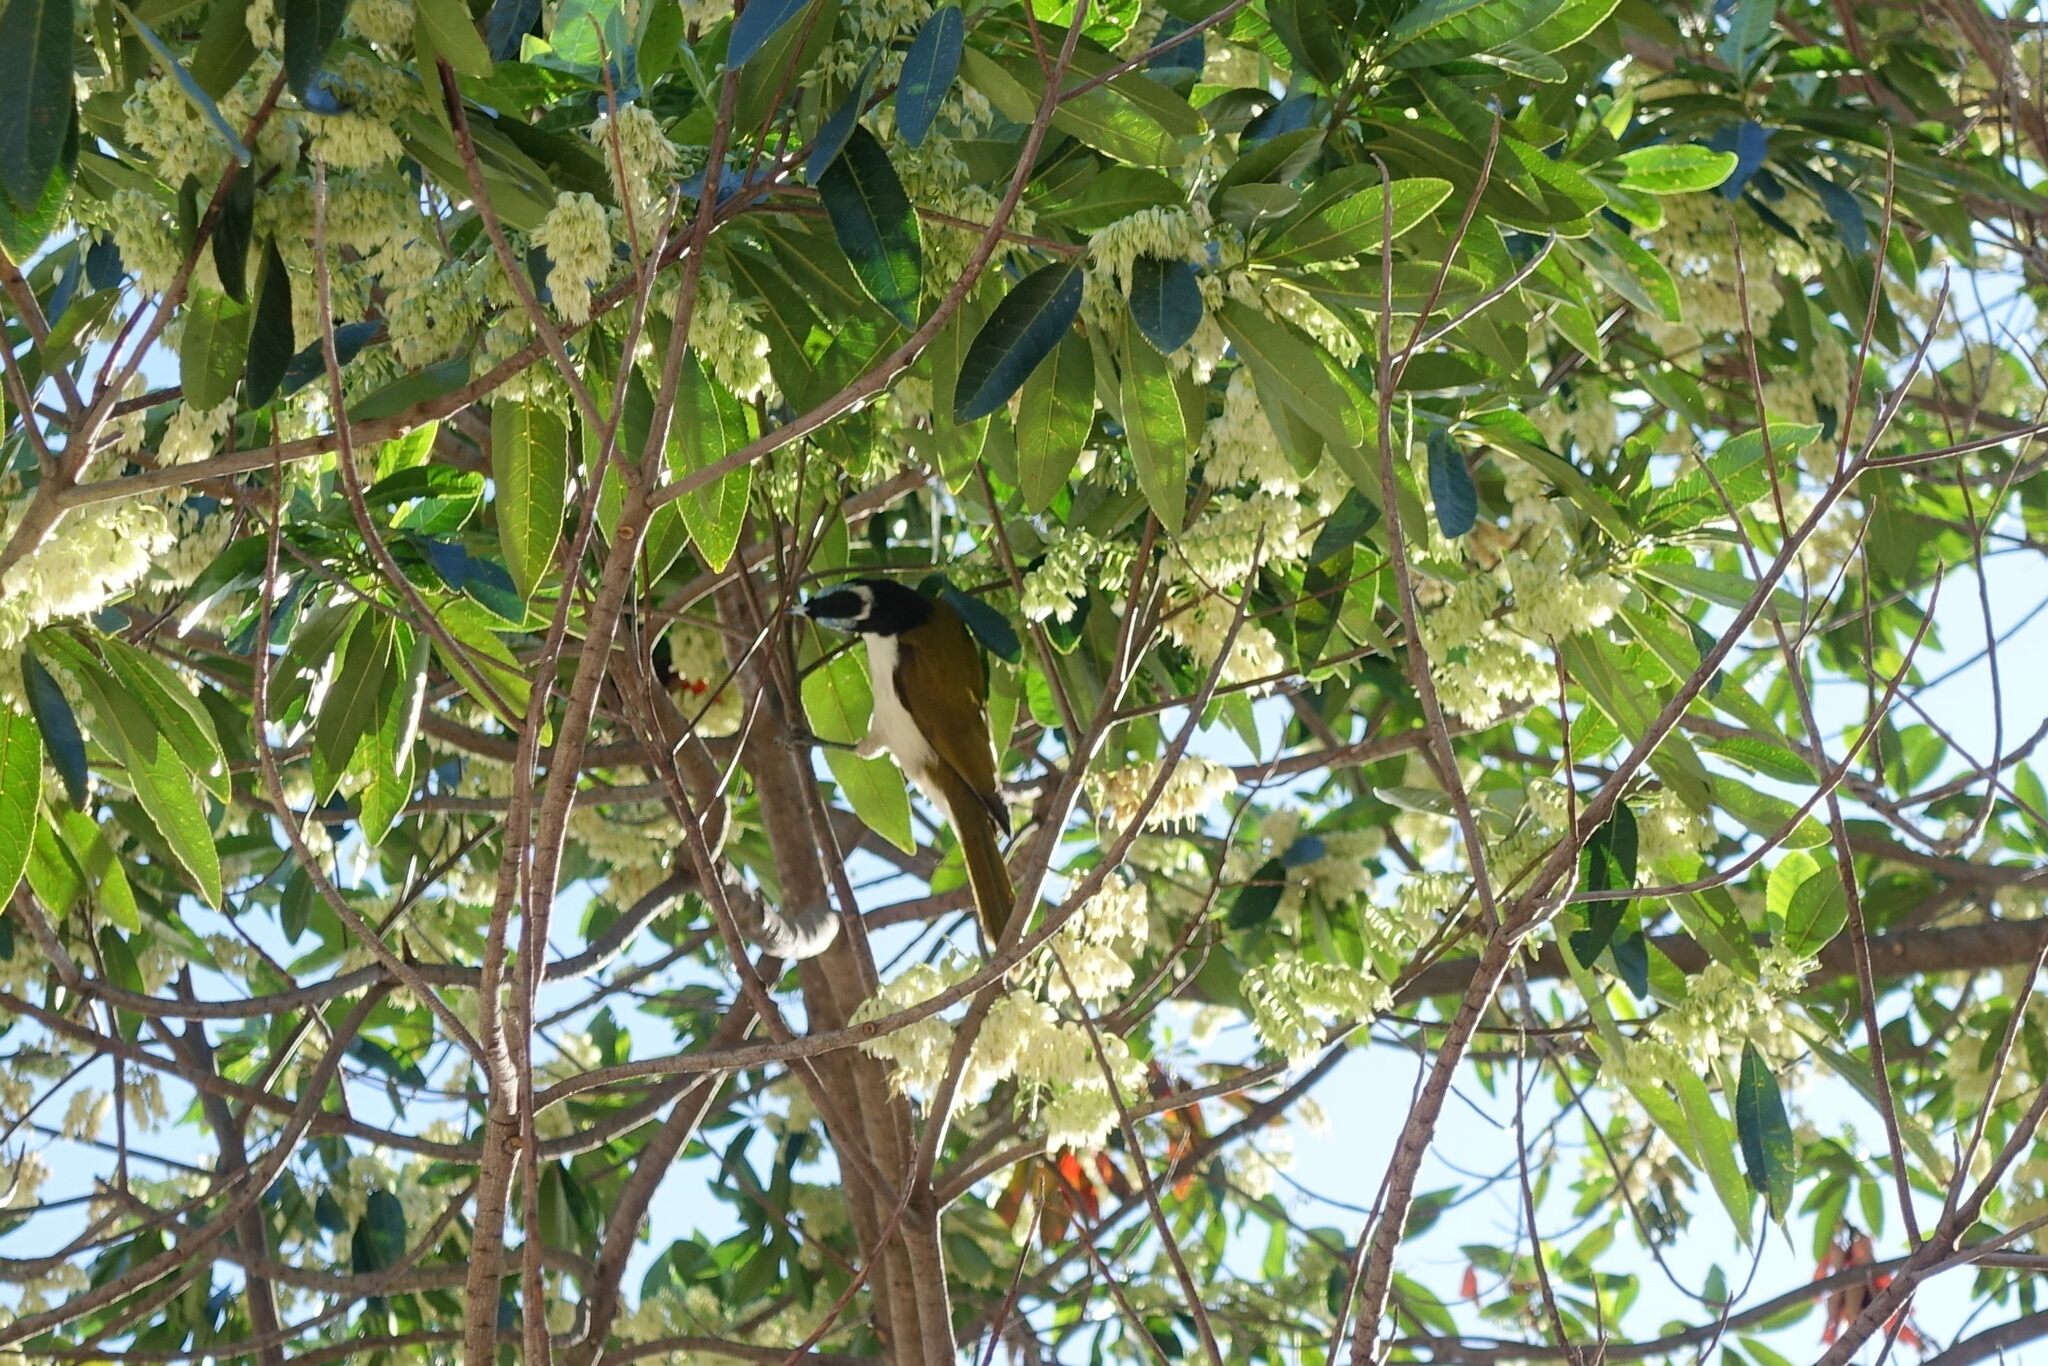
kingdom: Animalia
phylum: Chordata
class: Aves
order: Passeriformes
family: Meliphagidae
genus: Entomyzon
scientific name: Entomyzon cyanotis
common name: Blue-faced honeyeater
